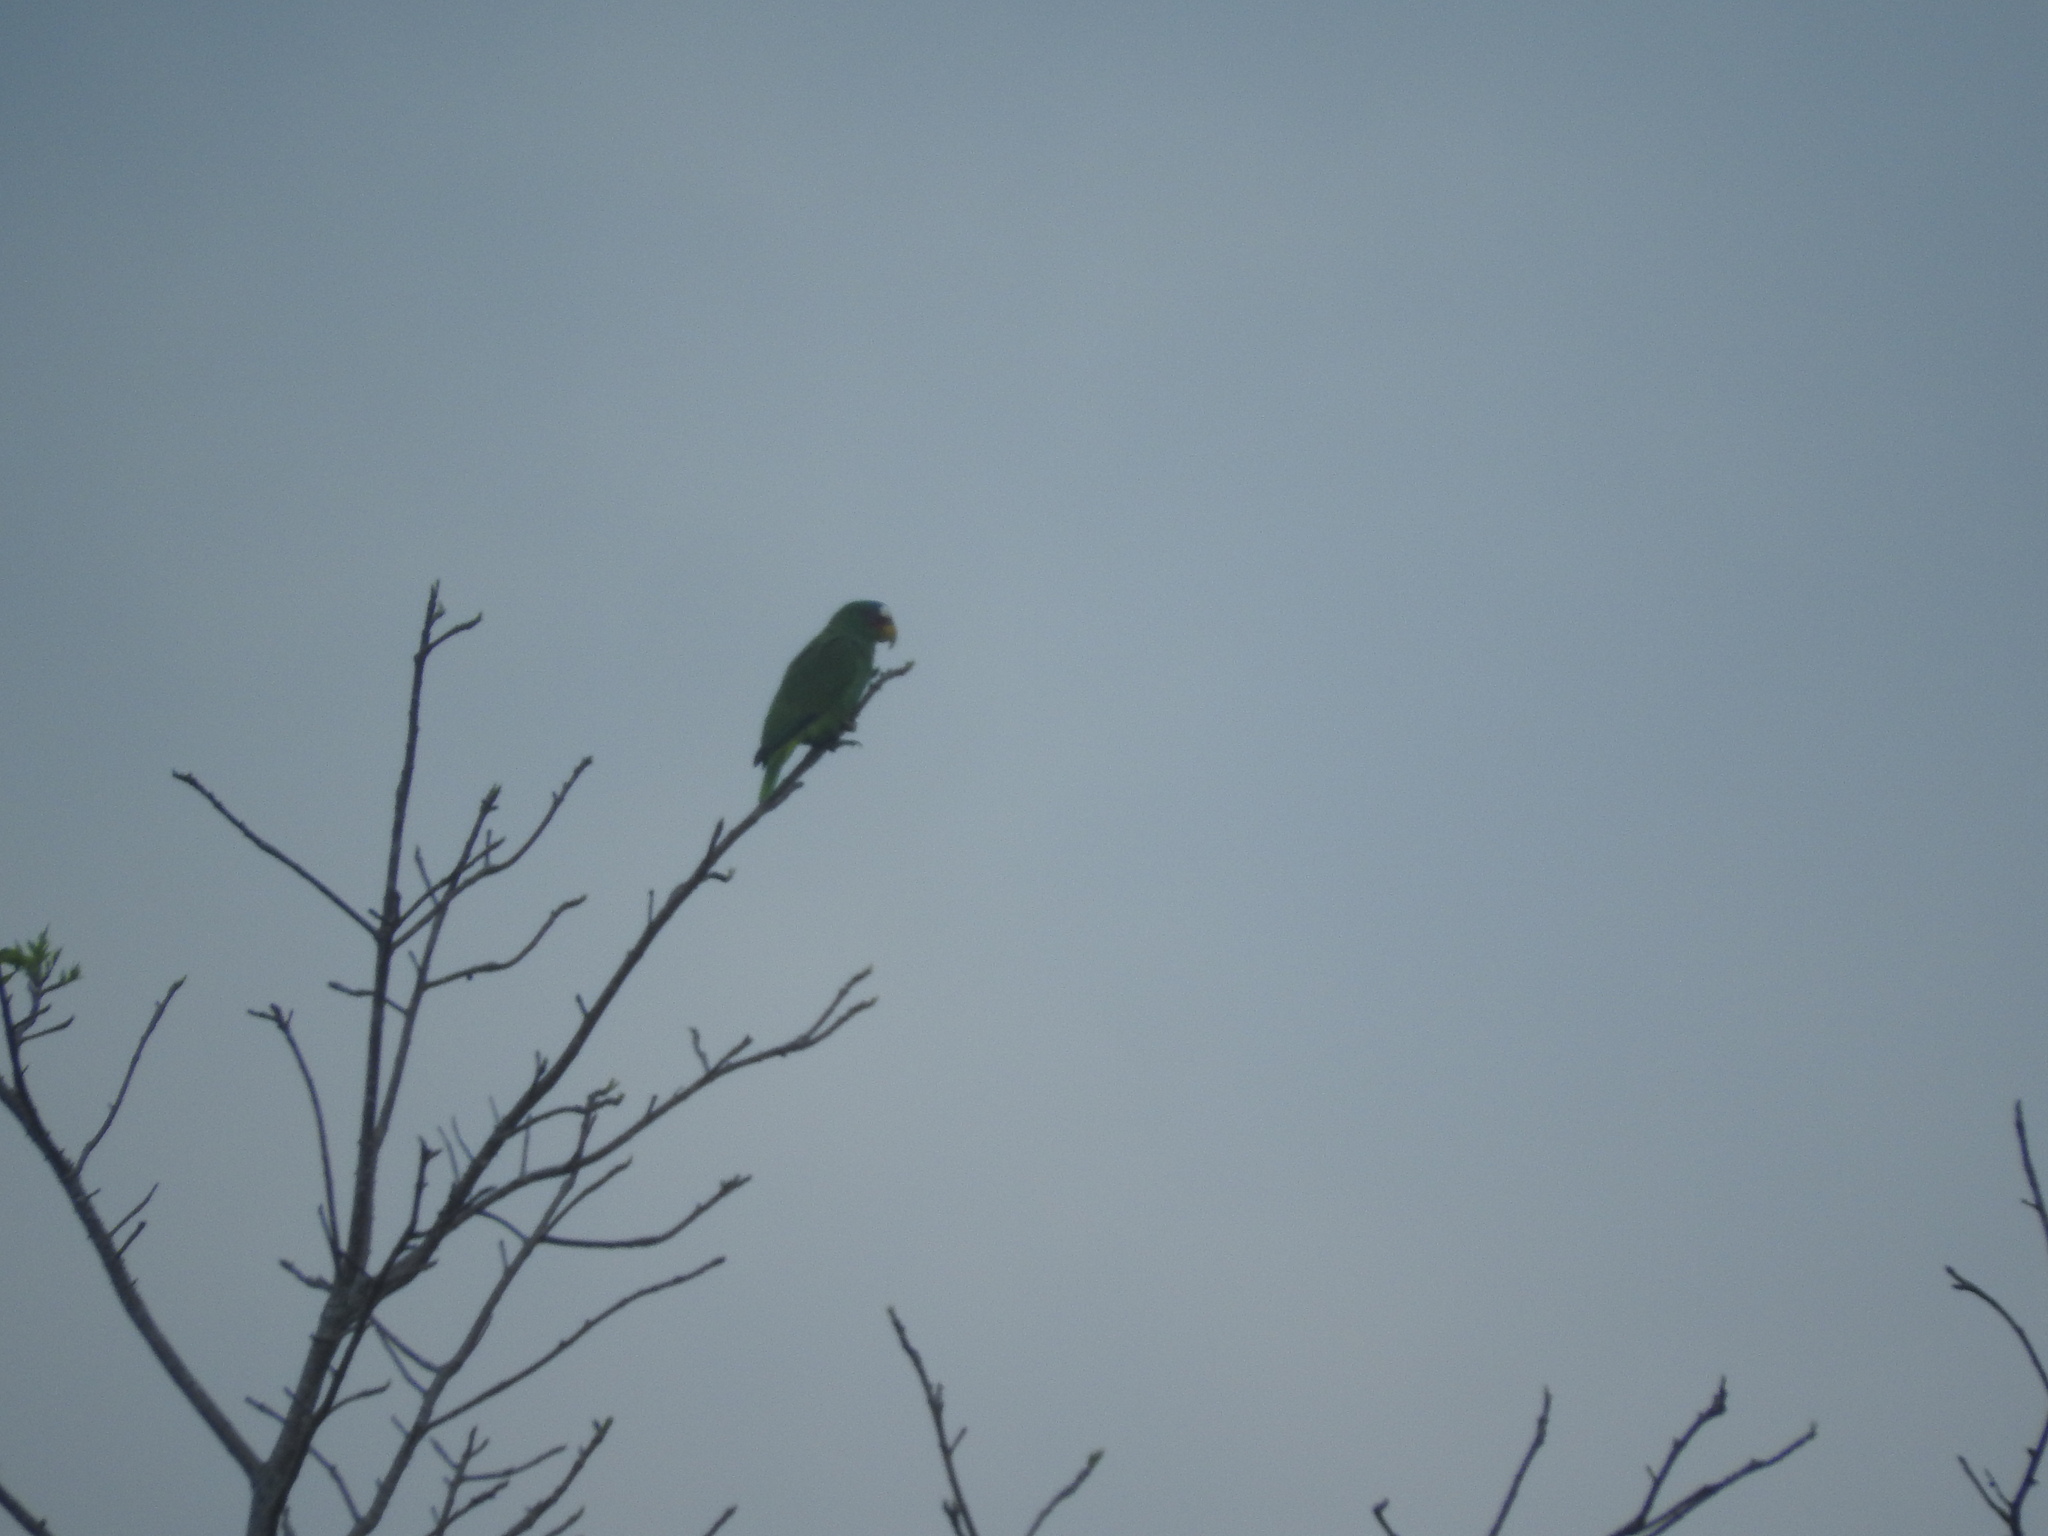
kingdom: Animalia
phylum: Chordata
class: Aves
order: Psittaciformes
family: Psittacidae
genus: Amazona
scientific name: Amazona albifrons
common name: White-fronted amazon
